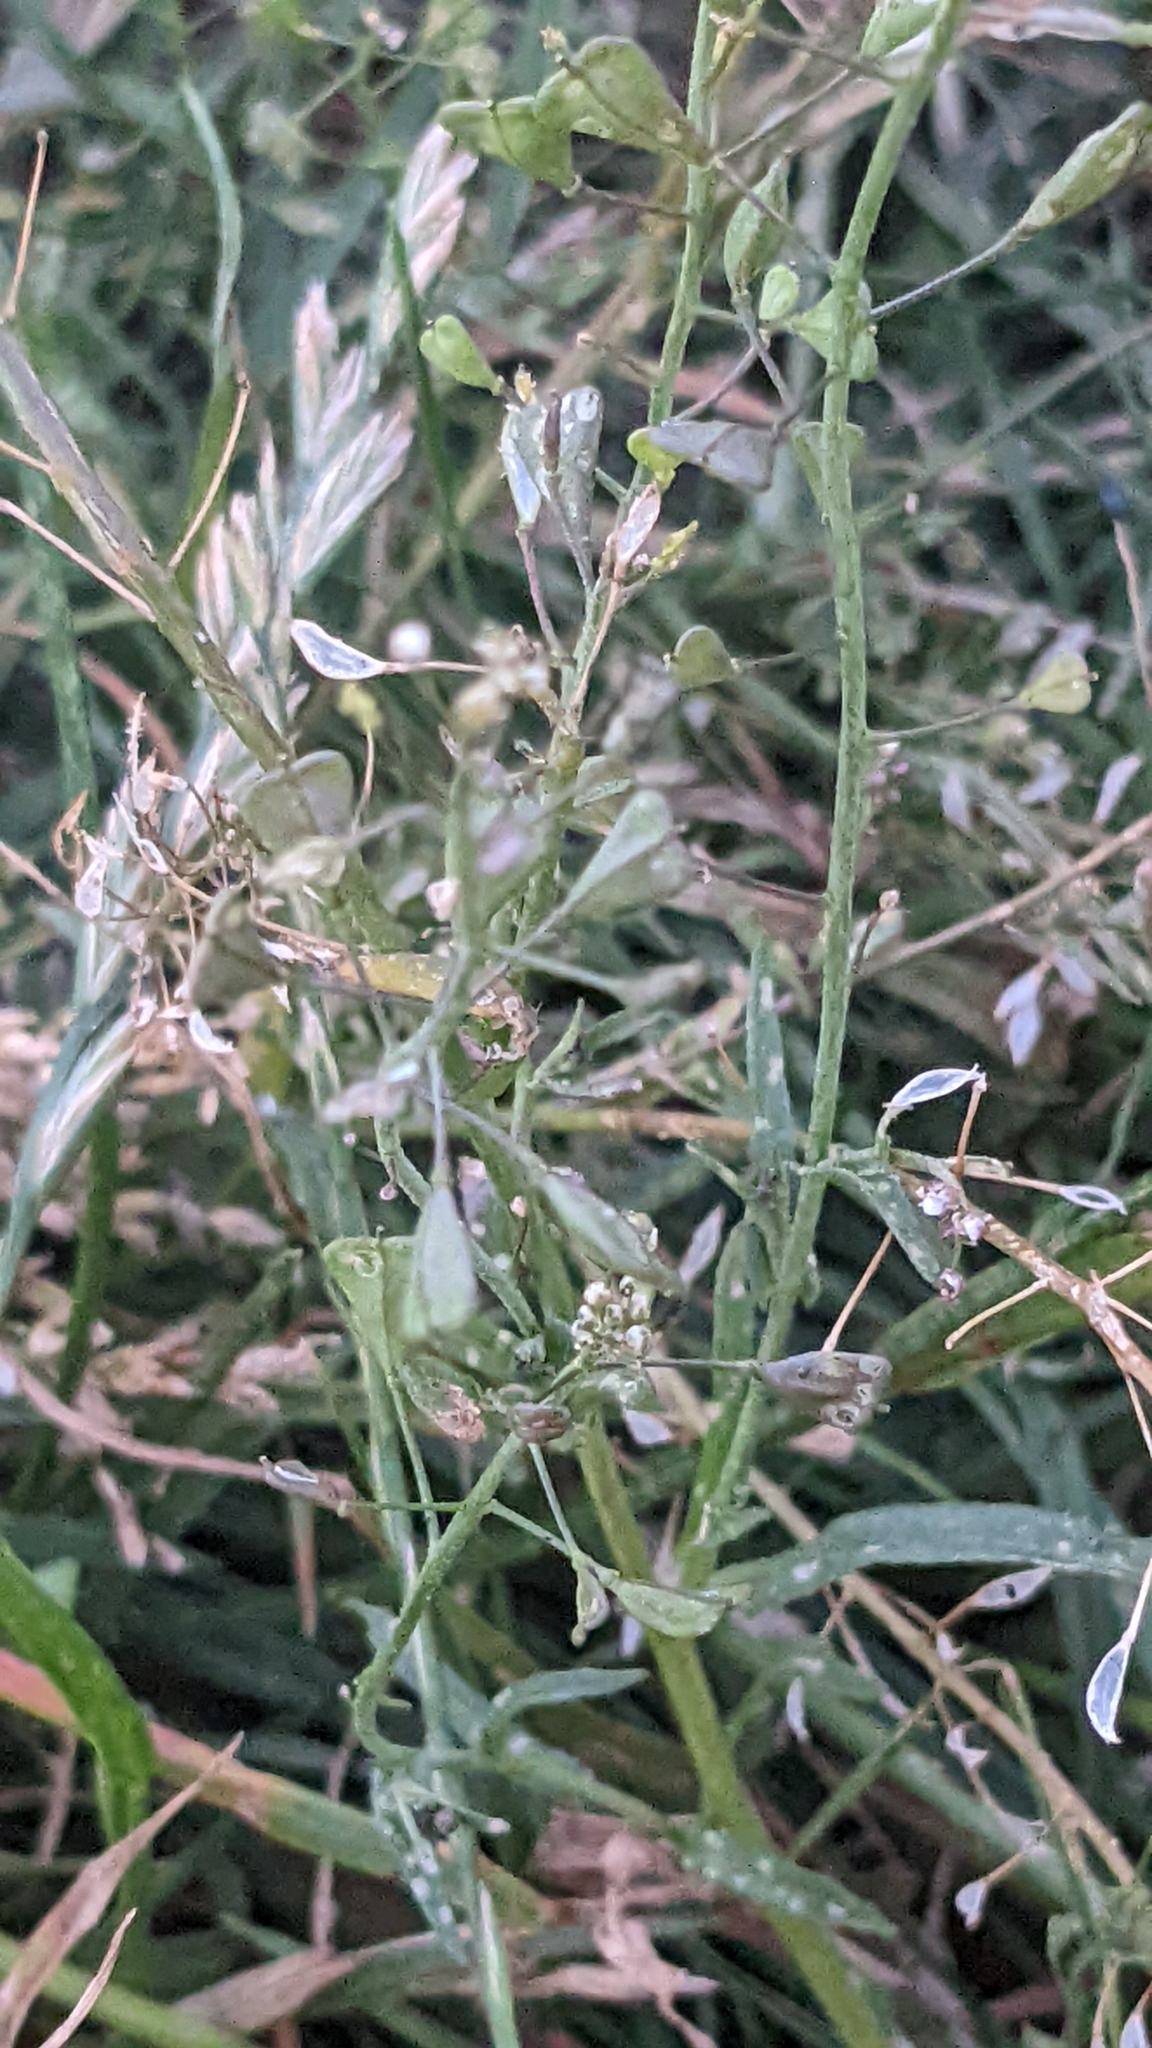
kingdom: Plantae
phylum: Tracheophyta
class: Magnoliopsida
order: Brassicales
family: Brassicaceae
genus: Capsella
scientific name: Capsella bursa-pastoris
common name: Shepherd's purse
